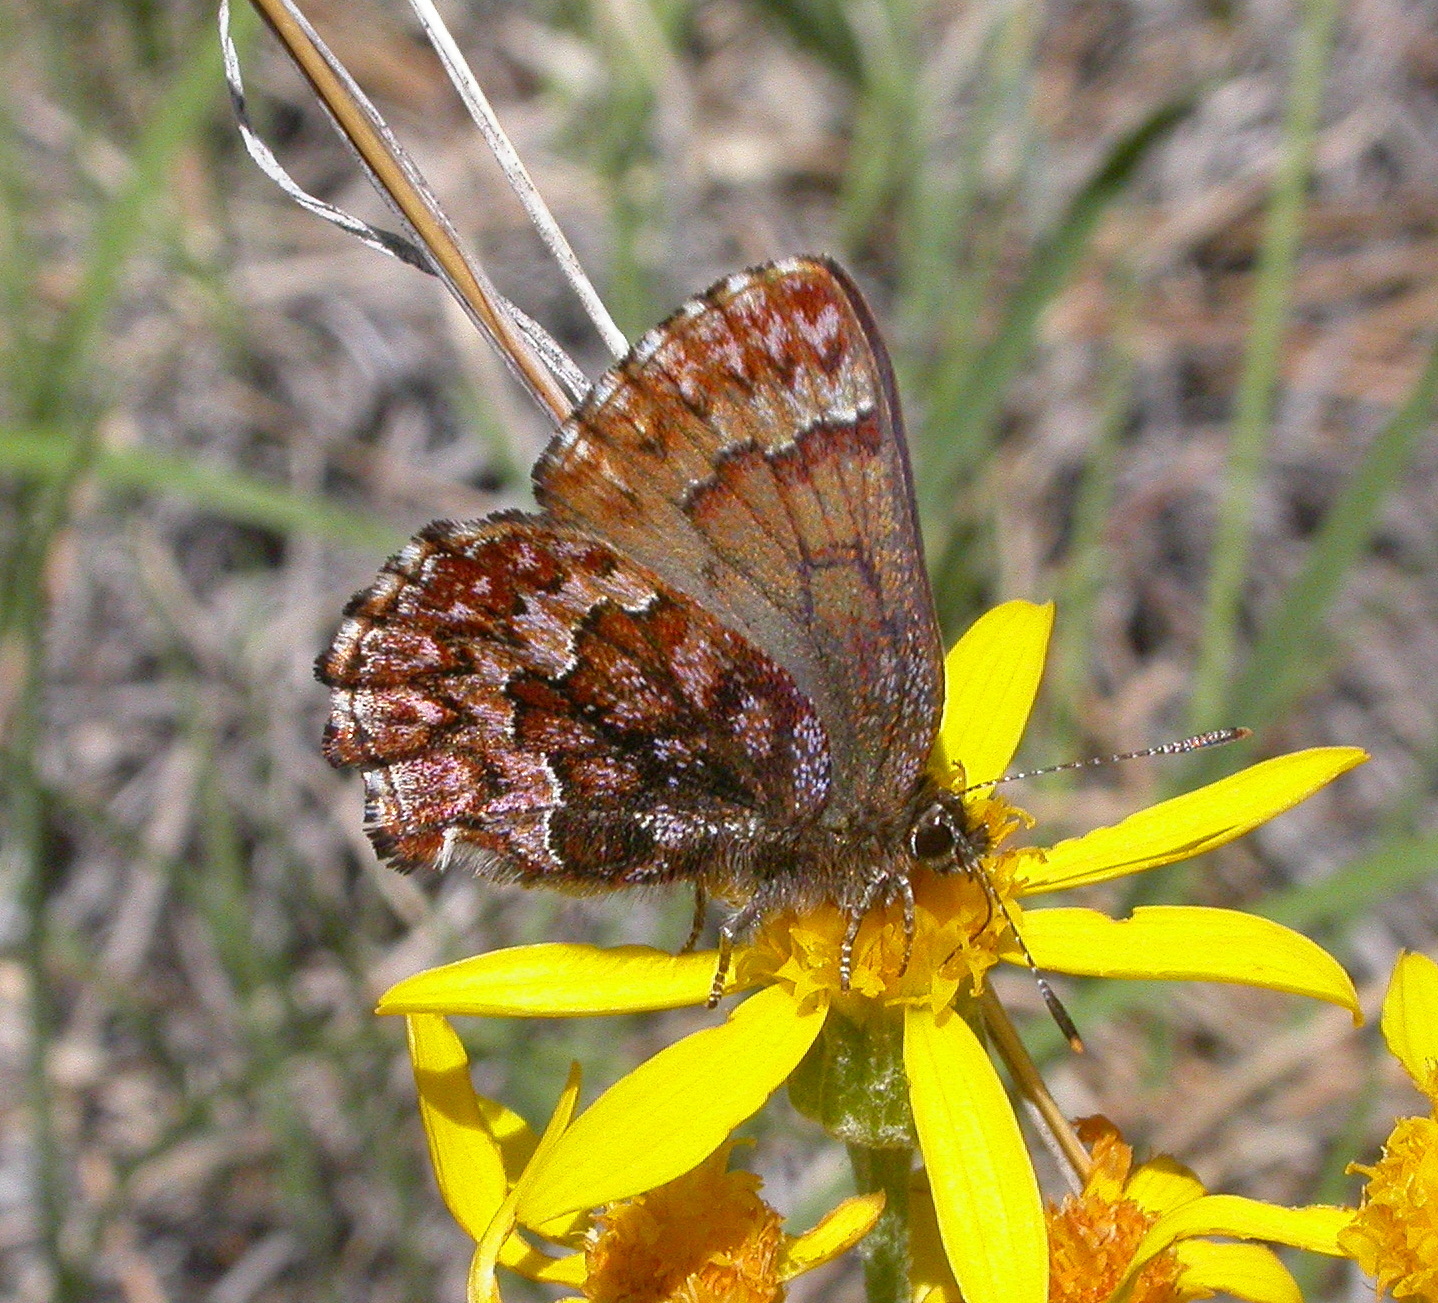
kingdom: Animalia
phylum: Arthropoda
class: Insecta
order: Lepidoptera
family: Lycaenidae
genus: Incisalia
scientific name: Incisalia eryphon
